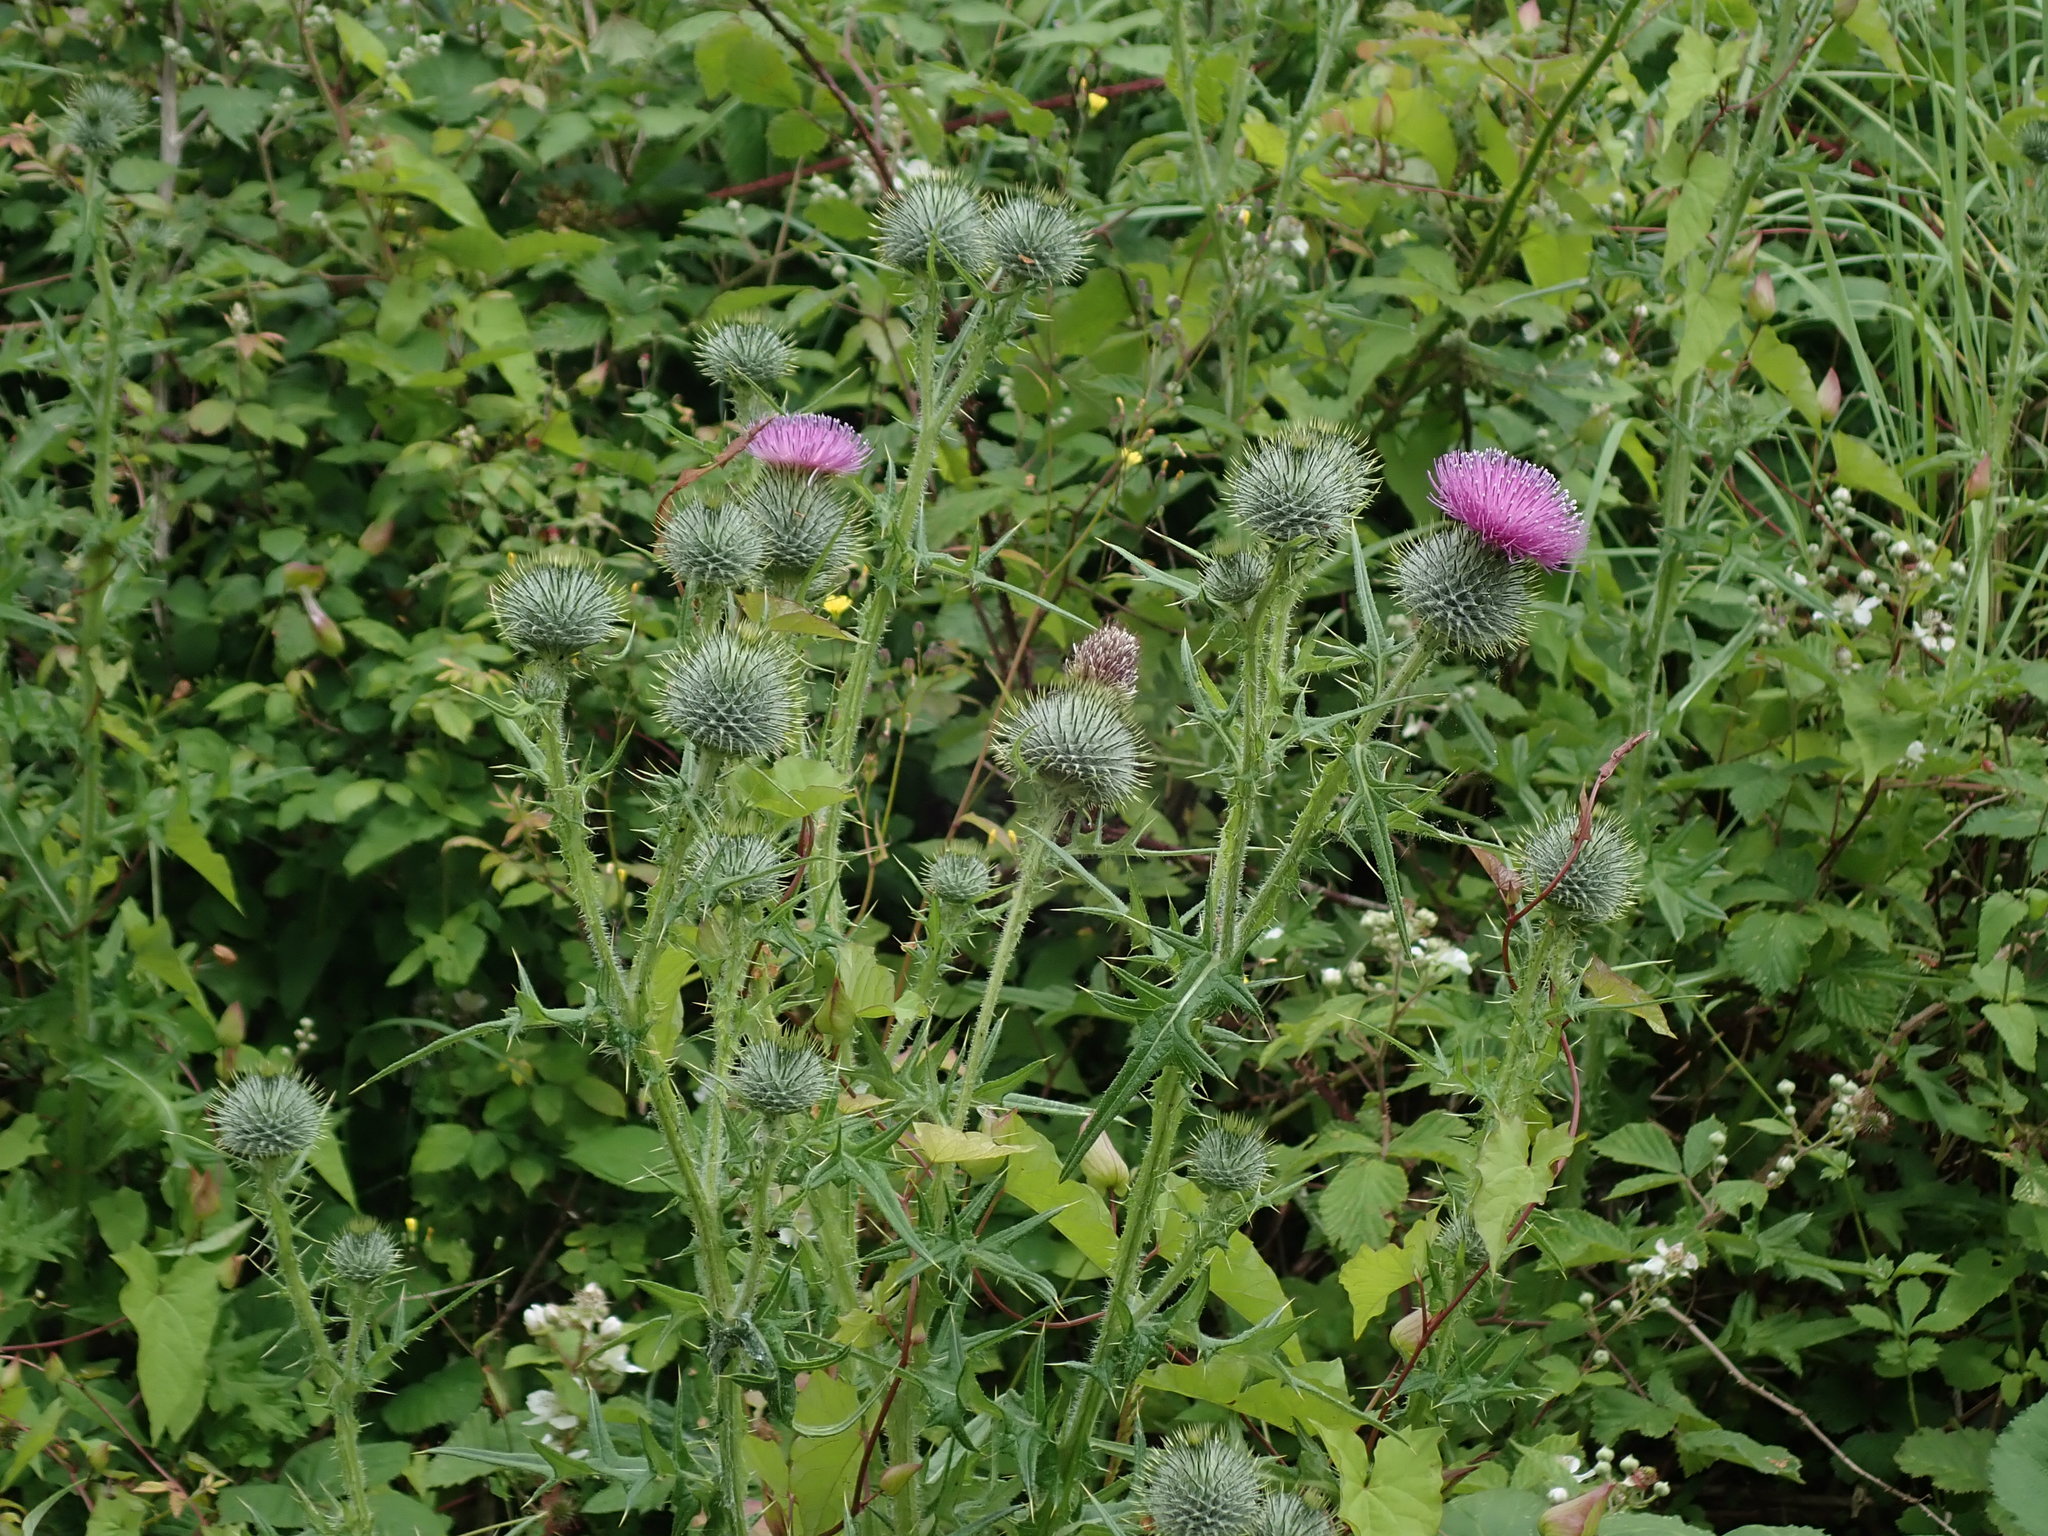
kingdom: Plantae
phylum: Tracheophyta
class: Magnoliopsida
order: Asterales
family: Asteraceae
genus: Cirsium
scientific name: Cirsium vulgare
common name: Bull thistle
